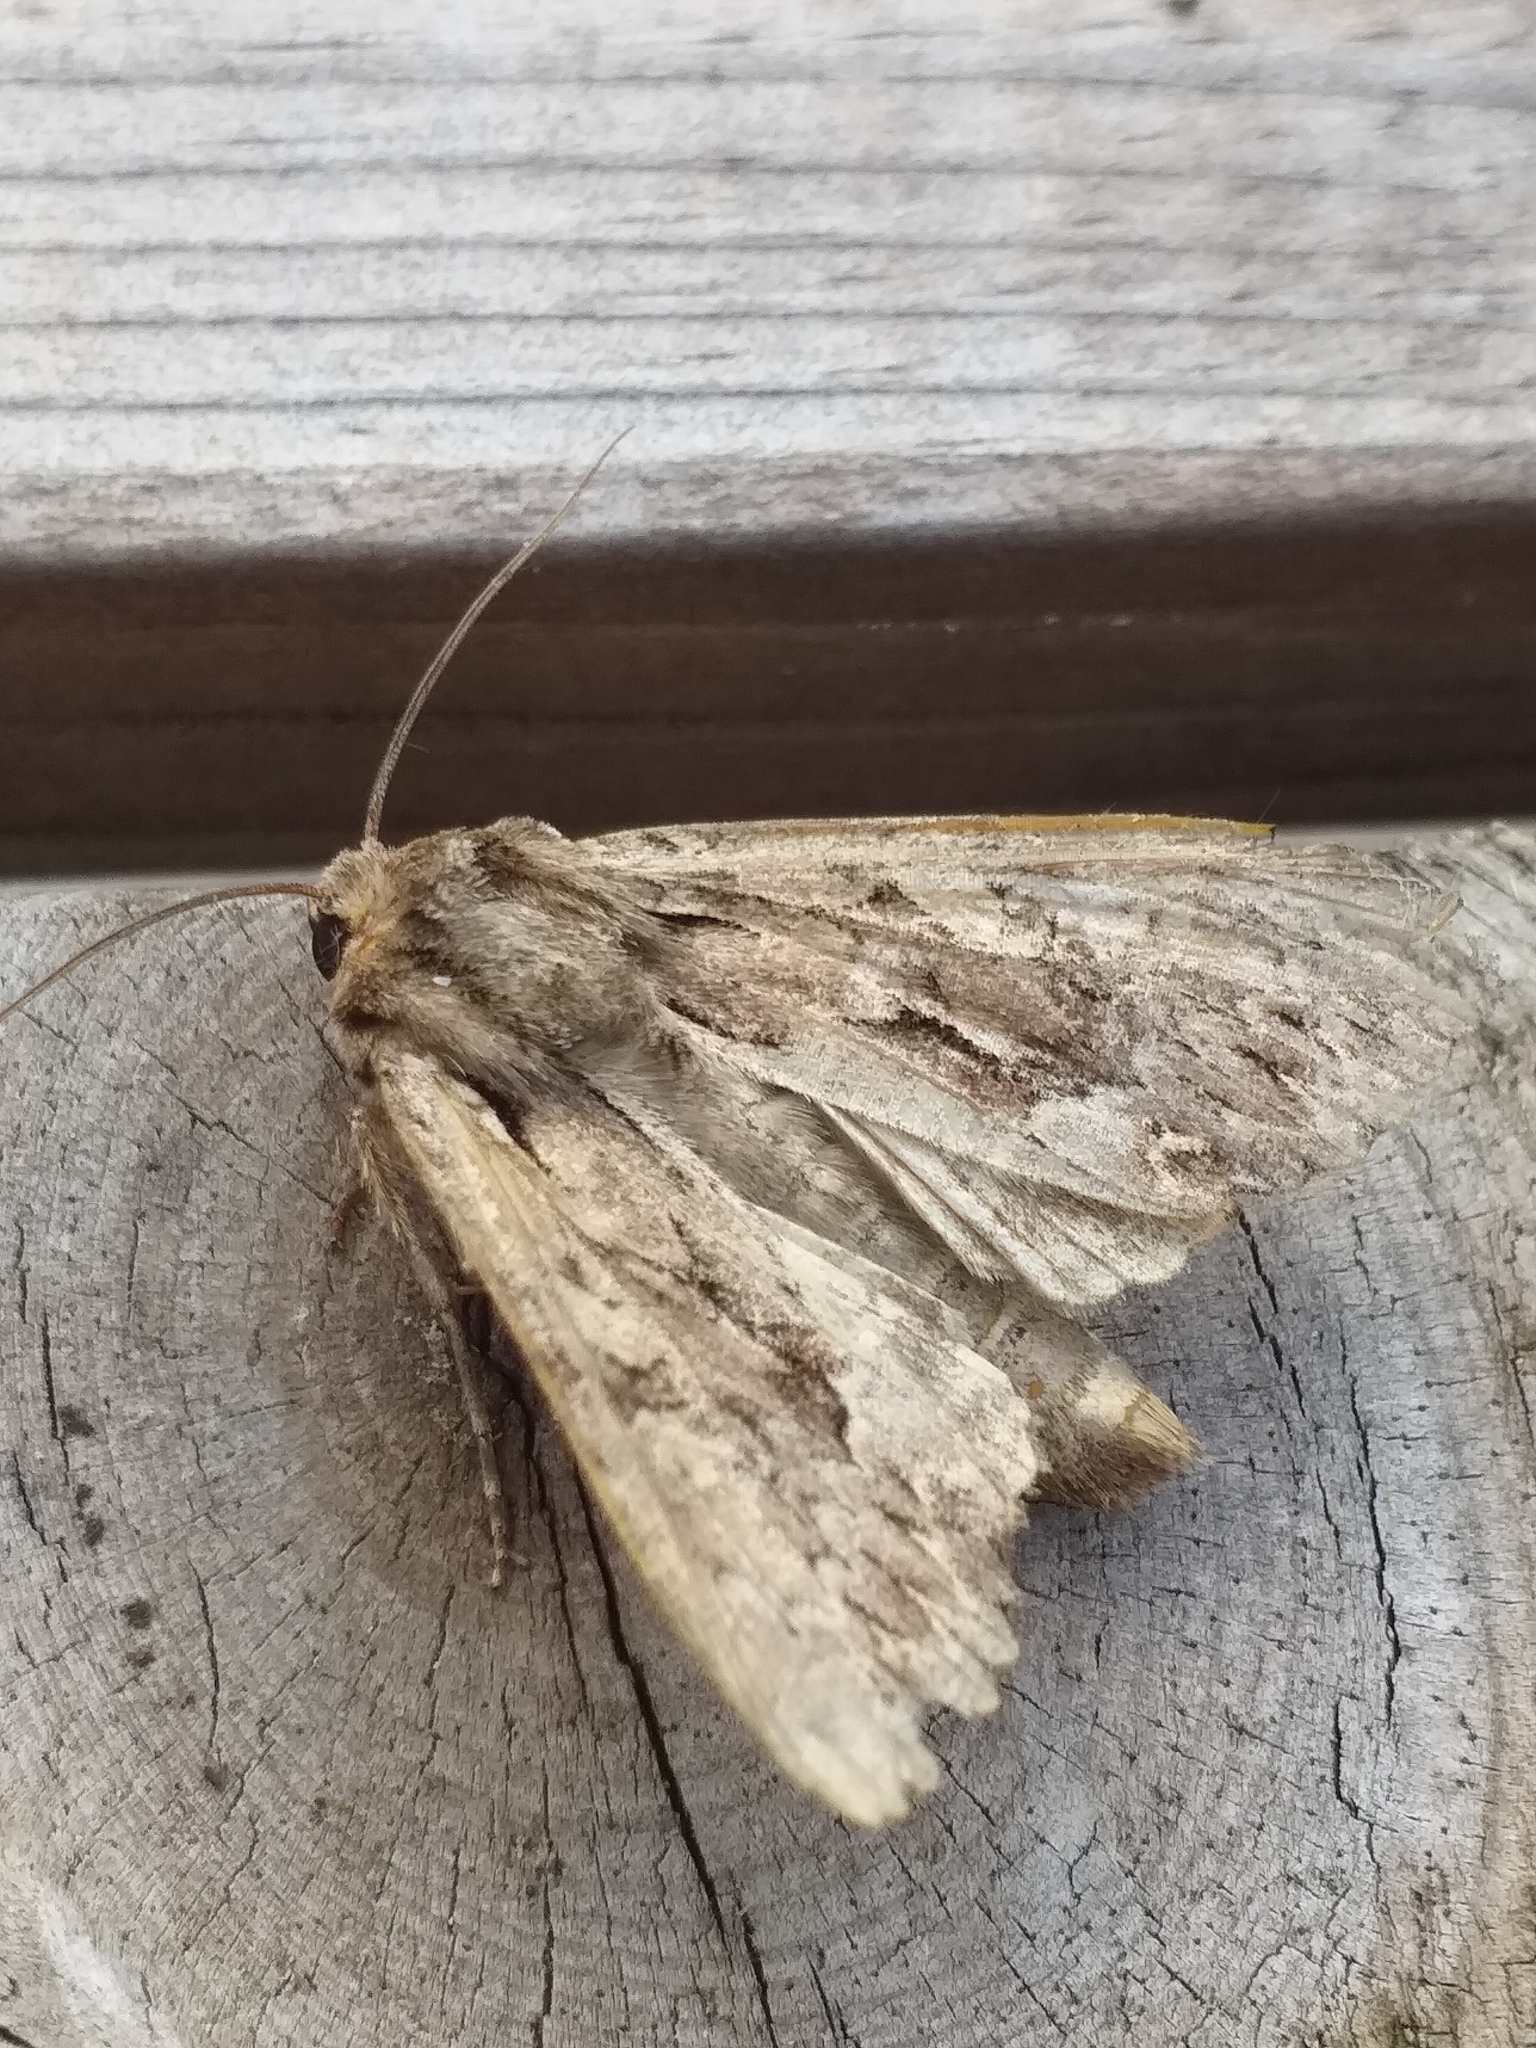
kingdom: Animalia
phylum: Arthropoda
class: Insecta
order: Lepidoptera
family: Noctuidae
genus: Apamea
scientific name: Apamea monoglypha
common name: Dark arches
